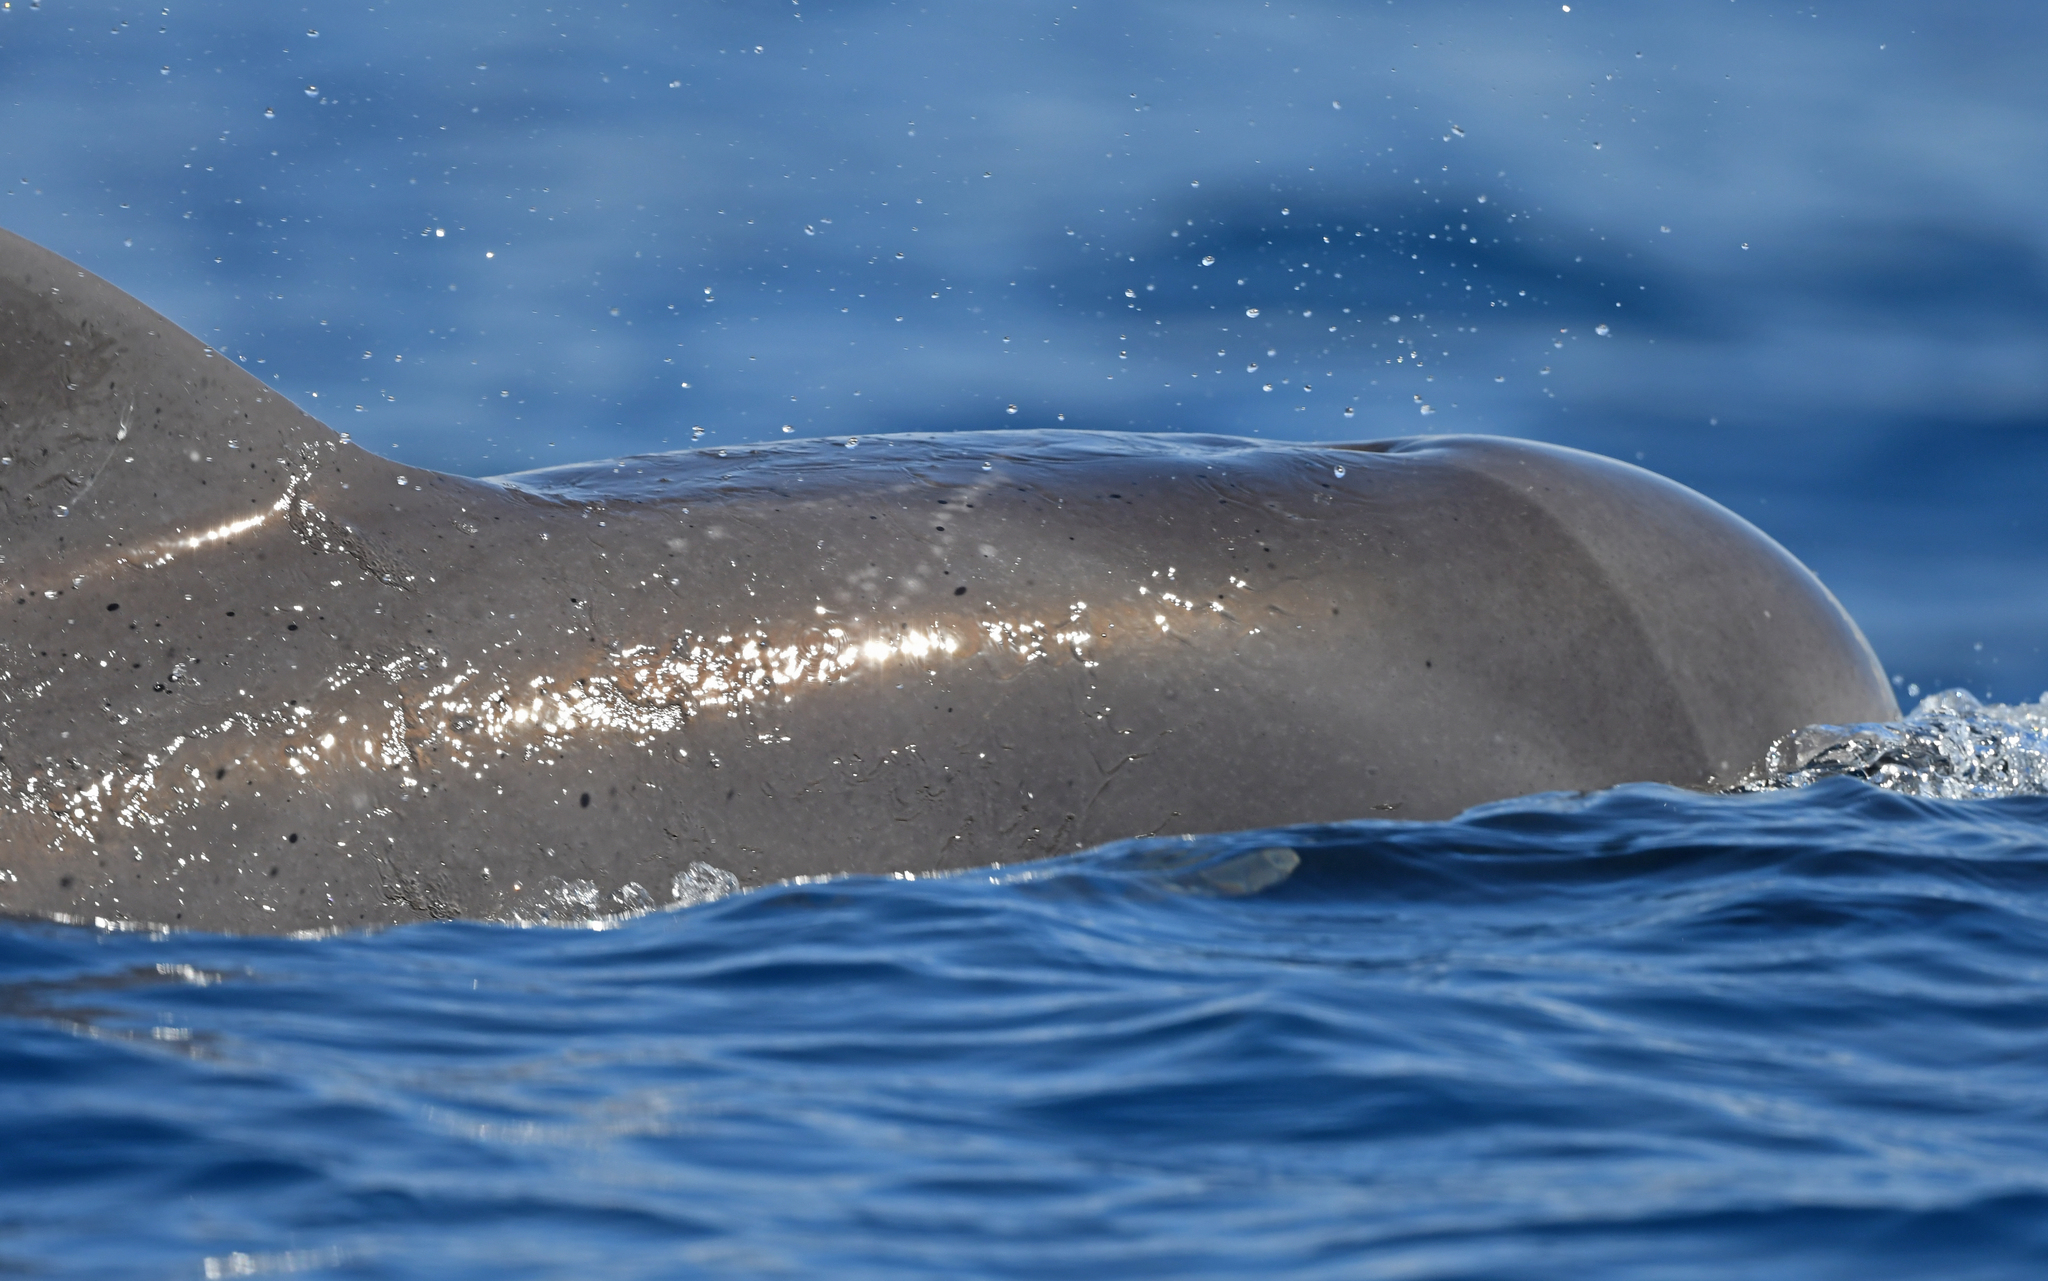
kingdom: Animalia
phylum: Chordata
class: Mammalia
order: Cetacea
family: Delphinidae
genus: Globicephala
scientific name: Globicephala macrorhynchus
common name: Short-finned pilot whale
